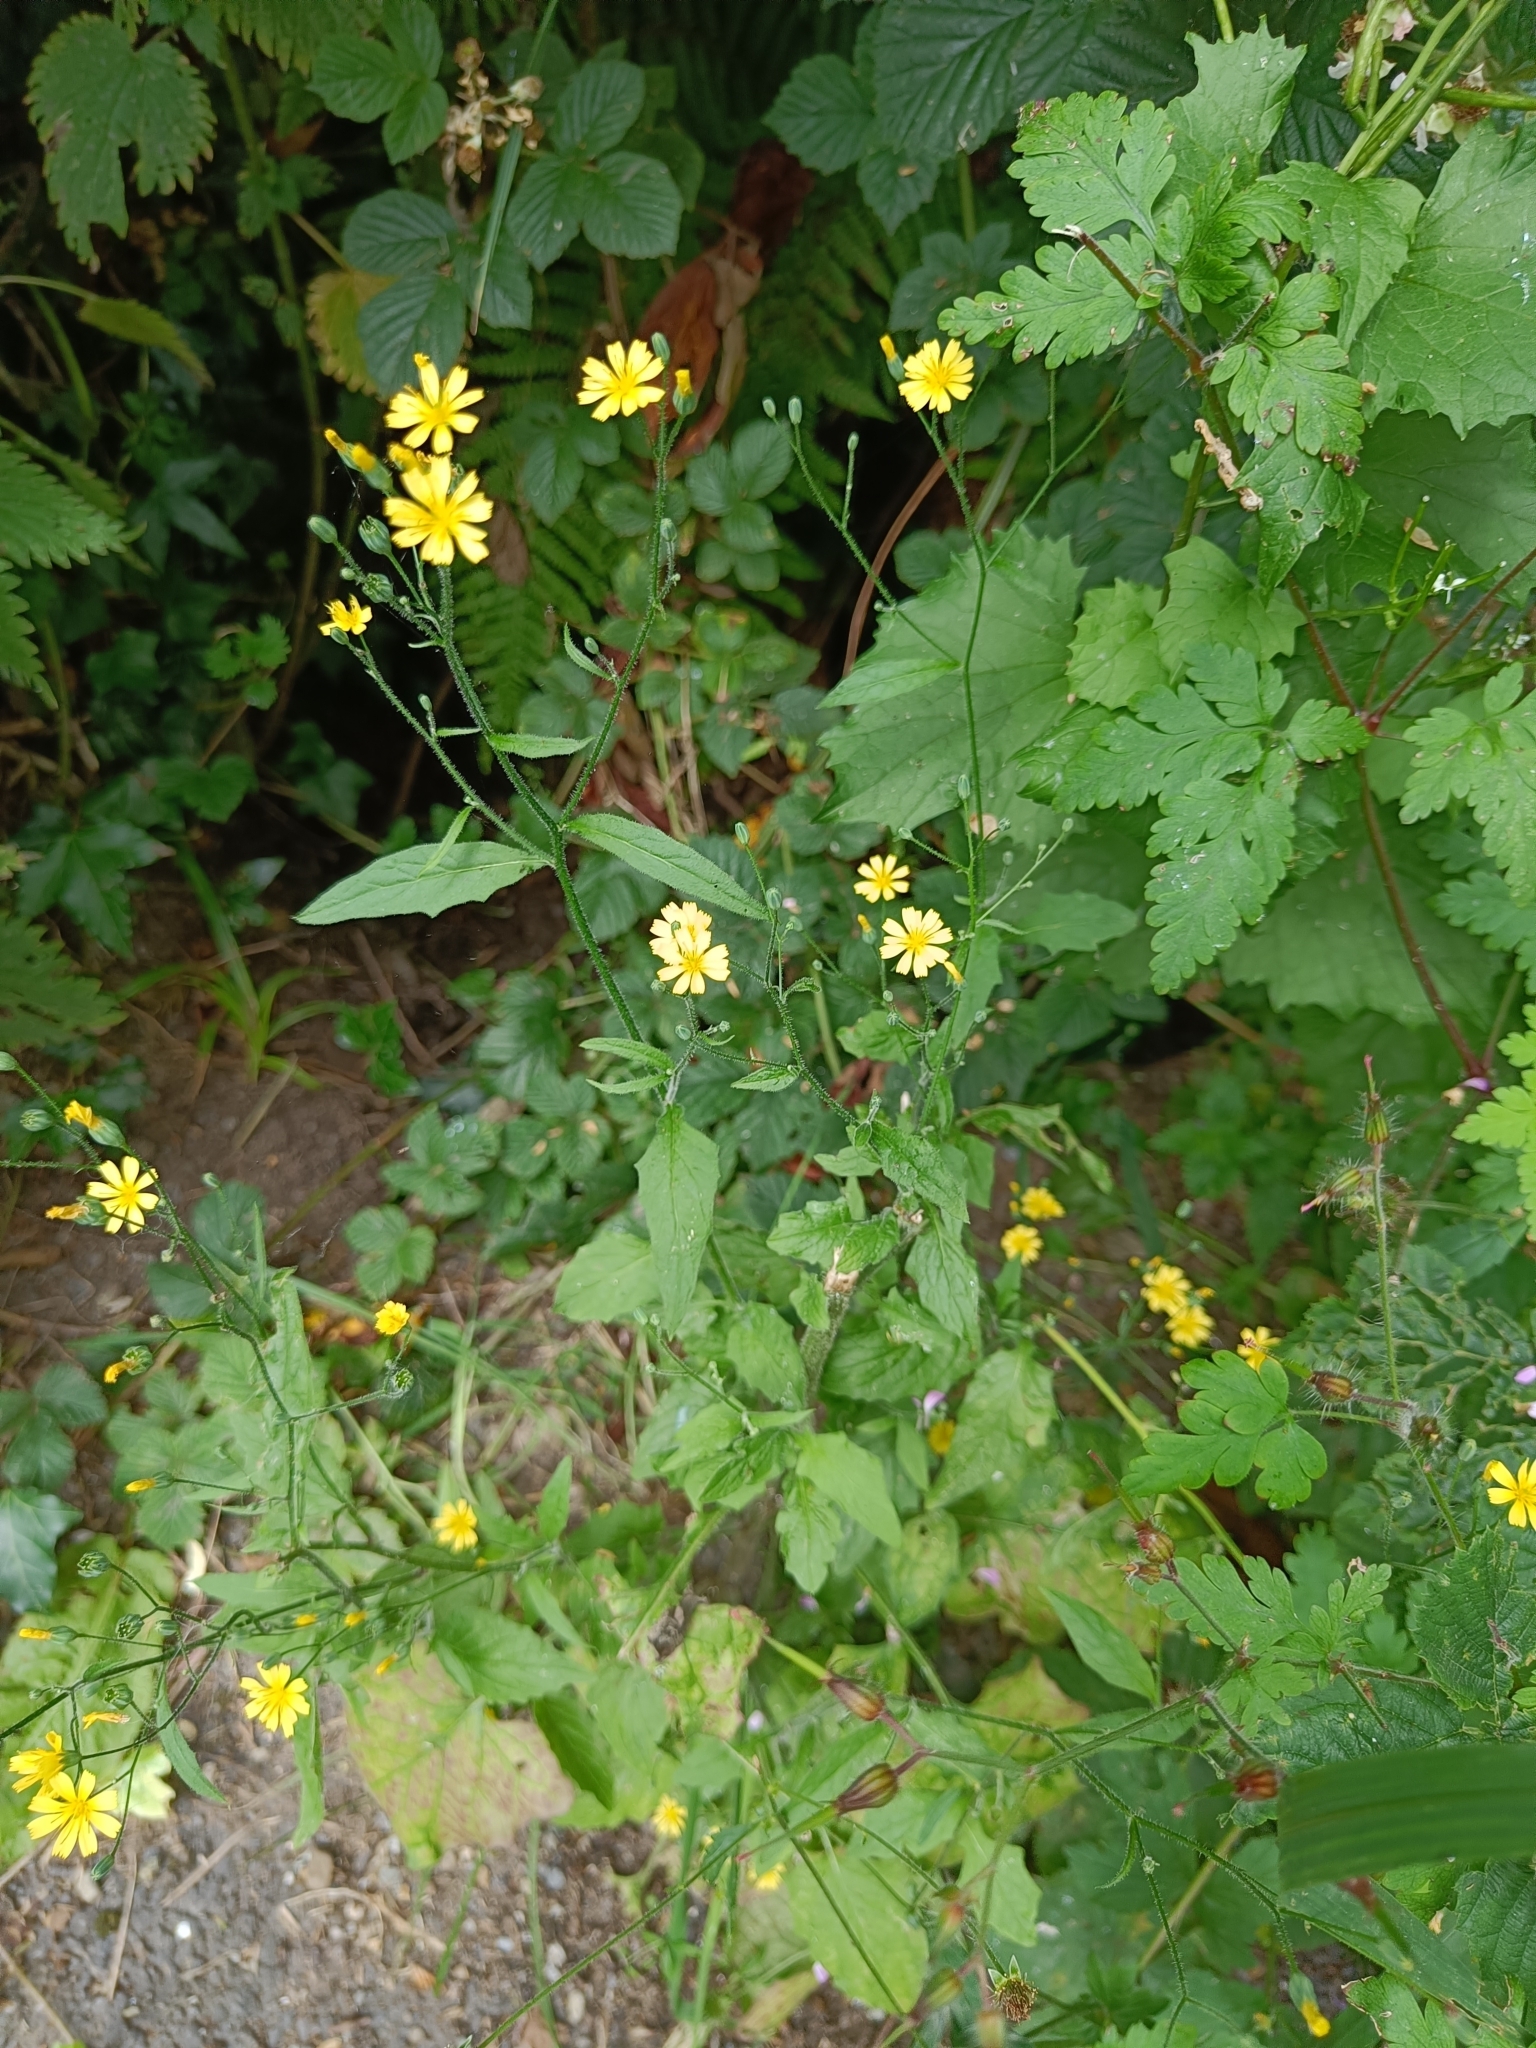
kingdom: Plantae
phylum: Tracheophyta
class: Magnoliopsida
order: Asterales
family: Asteraceae
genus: Lapsana
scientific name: Lapsana communis
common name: Nipplewort
